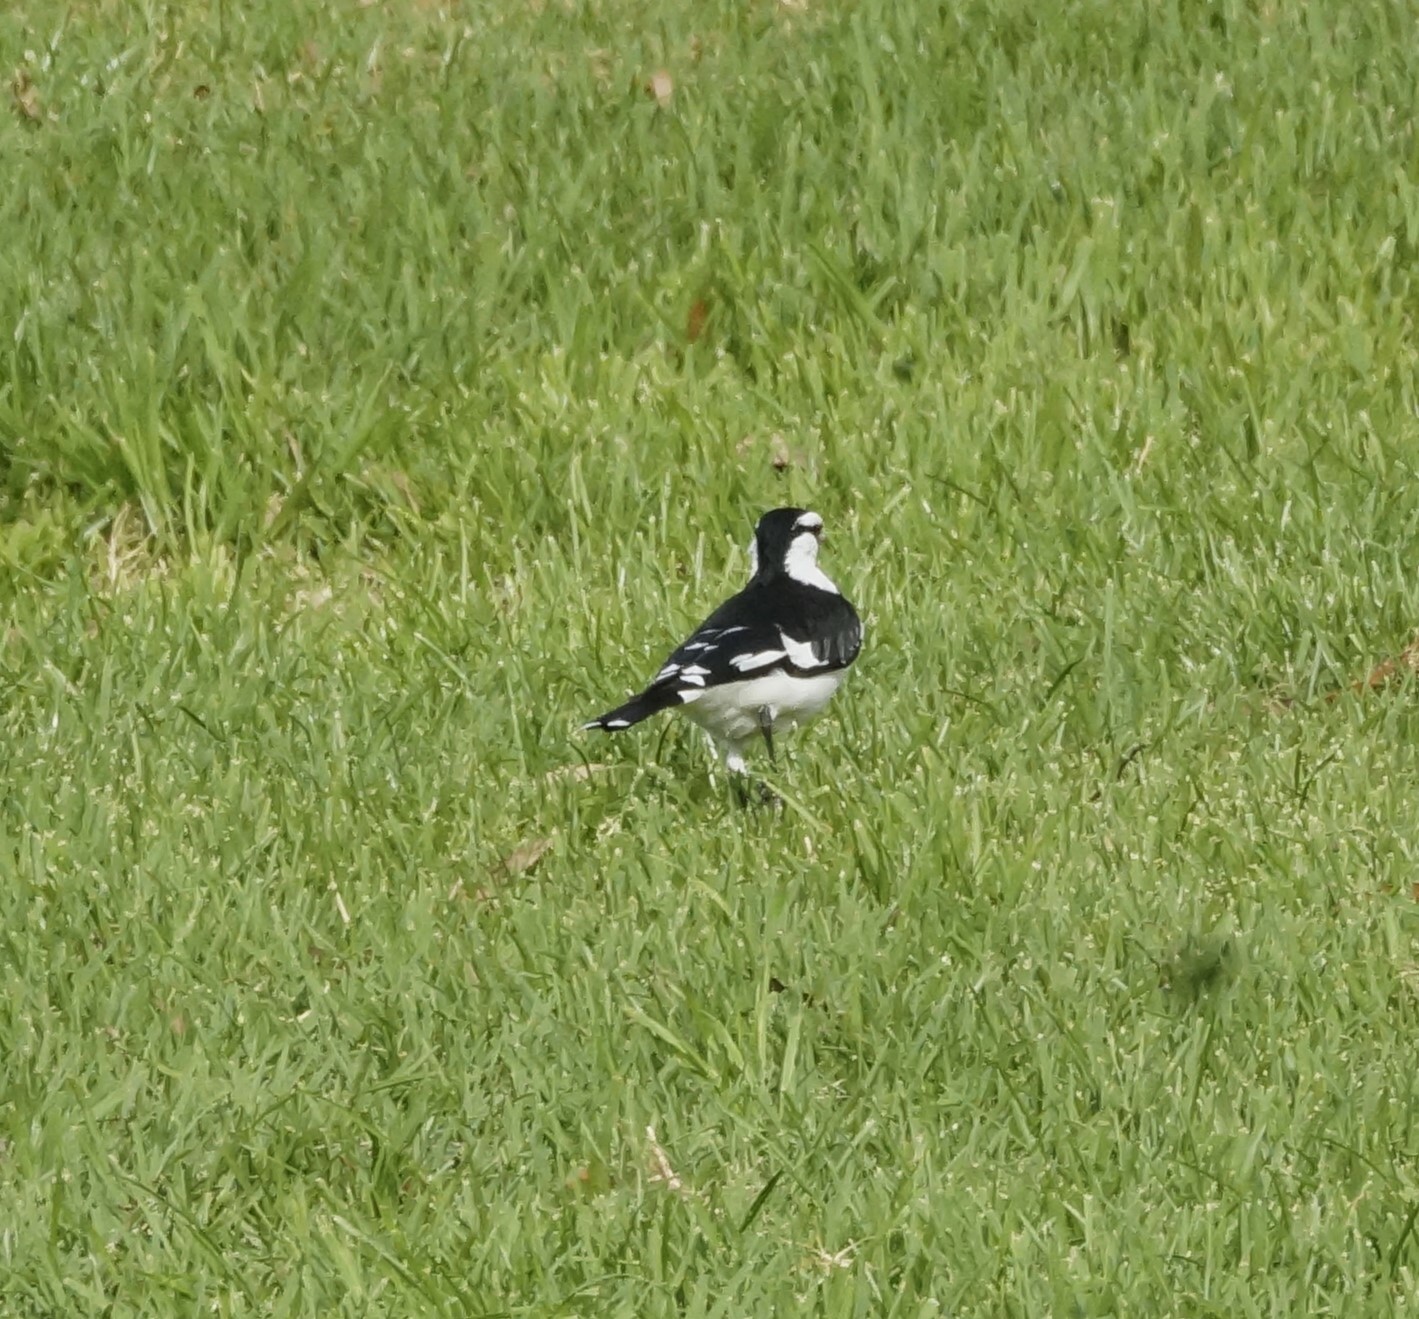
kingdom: Animalia
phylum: Chordata
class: Aves
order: Passeriformes
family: Monarchidae
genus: Grallina
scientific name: Grallina cyanoleuca
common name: Magpie-lark
